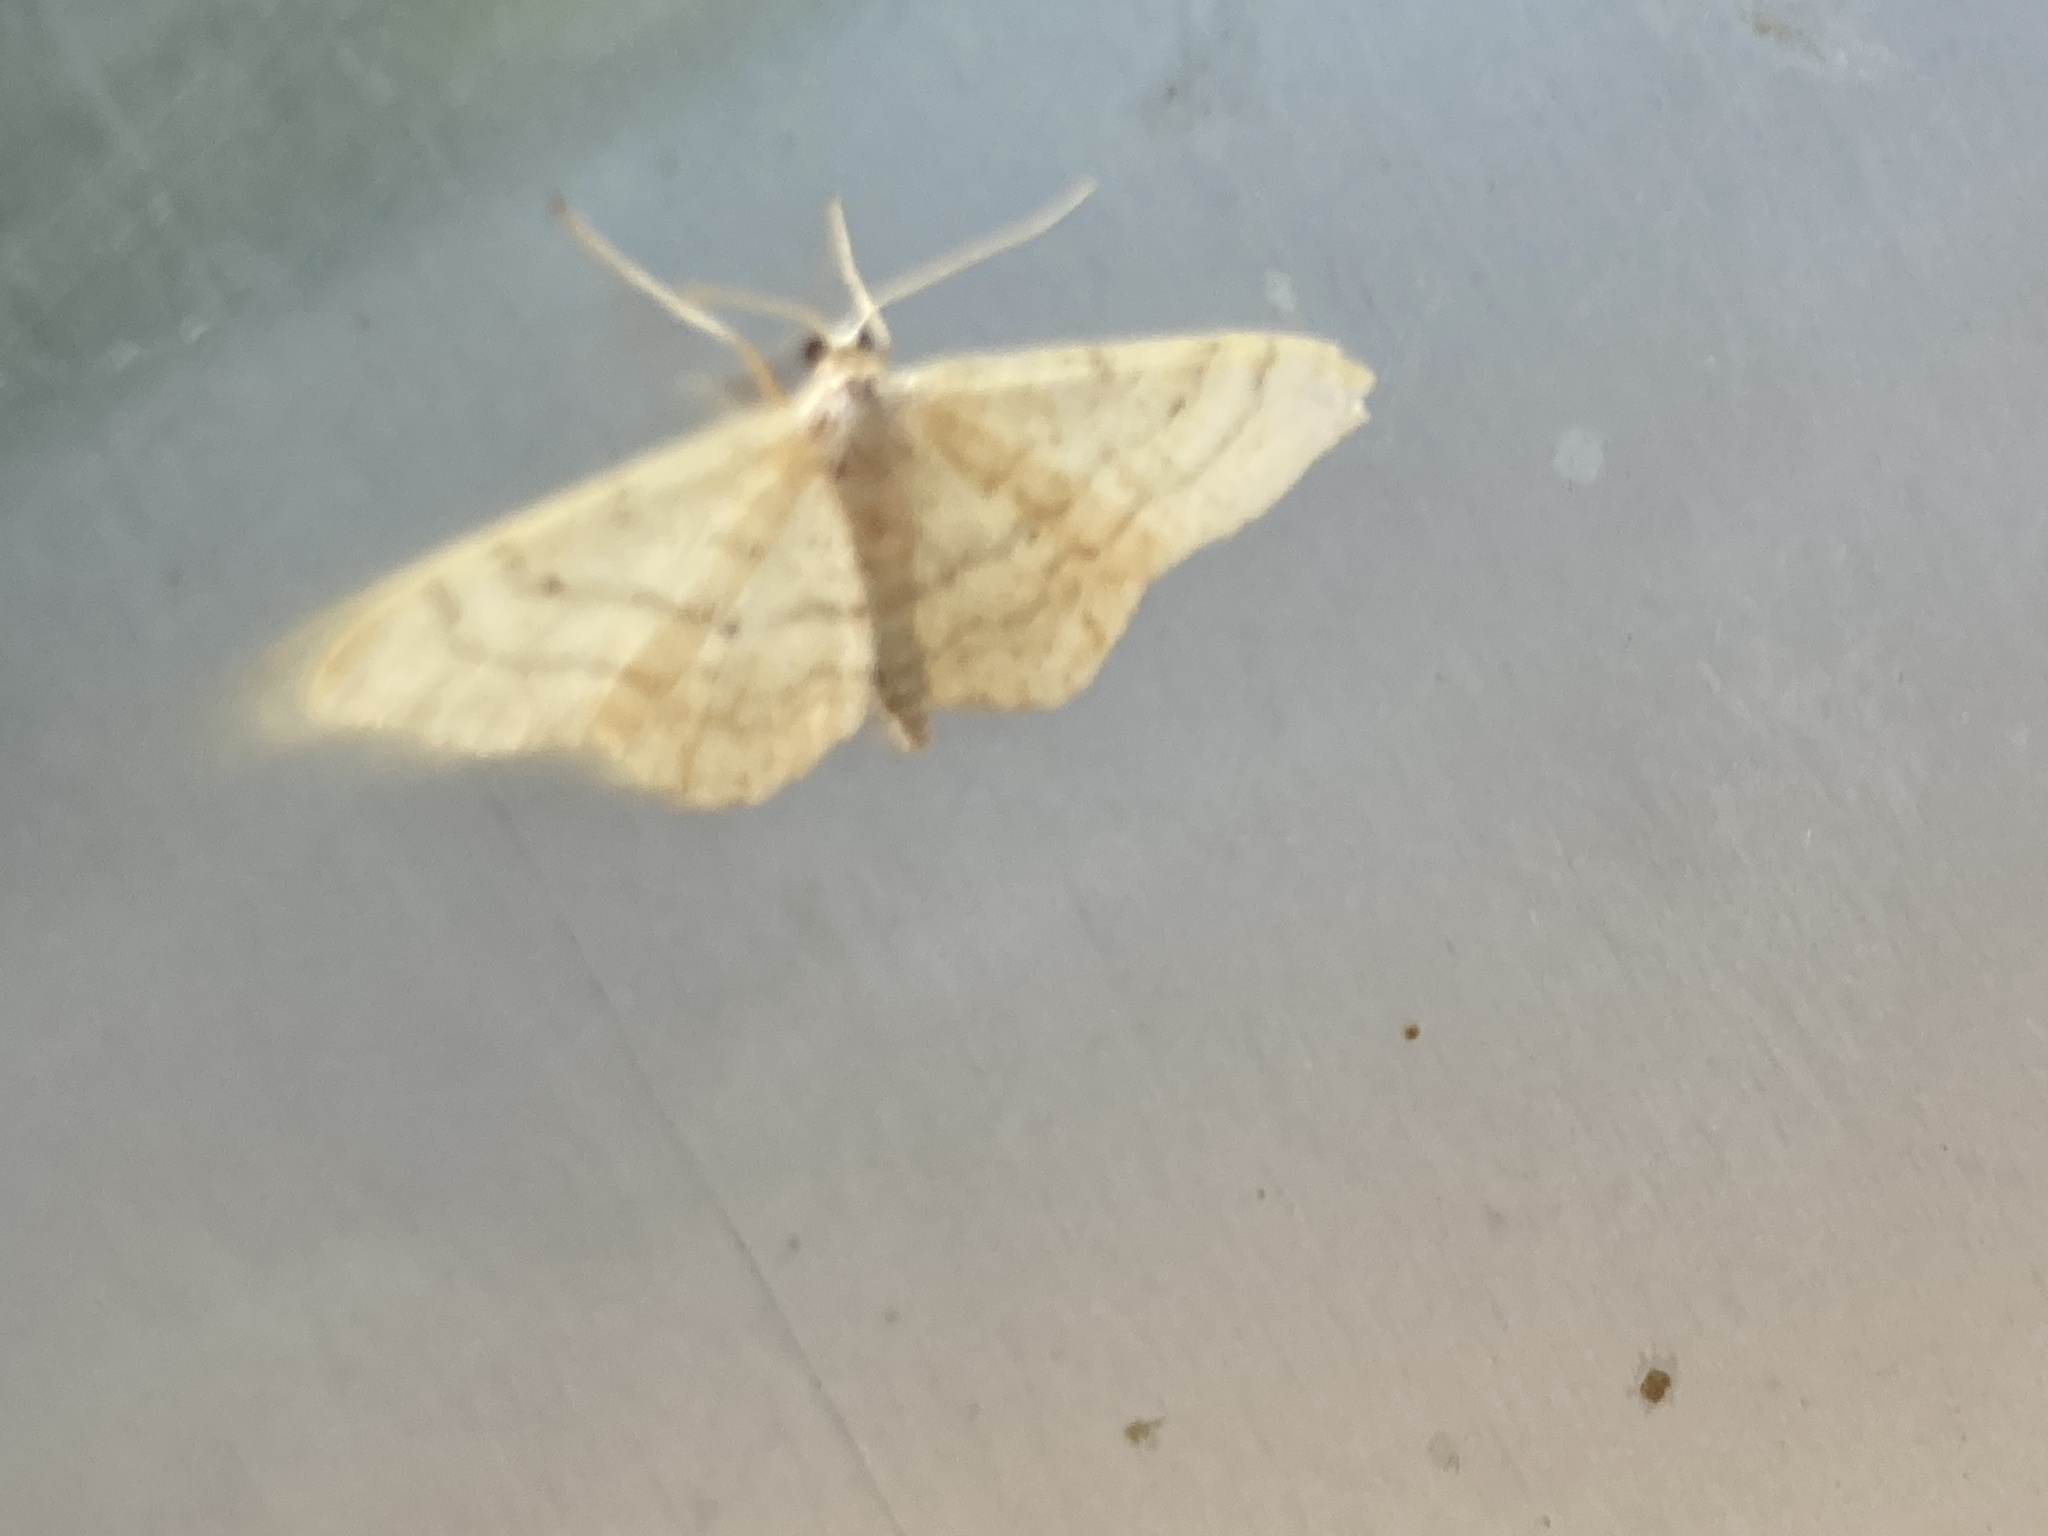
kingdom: Animalia
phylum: Arthropoda
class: Insecta
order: Lepidoptera
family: Geometridae
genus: Idaea
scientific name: Idaea aversata
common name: Riband wave
